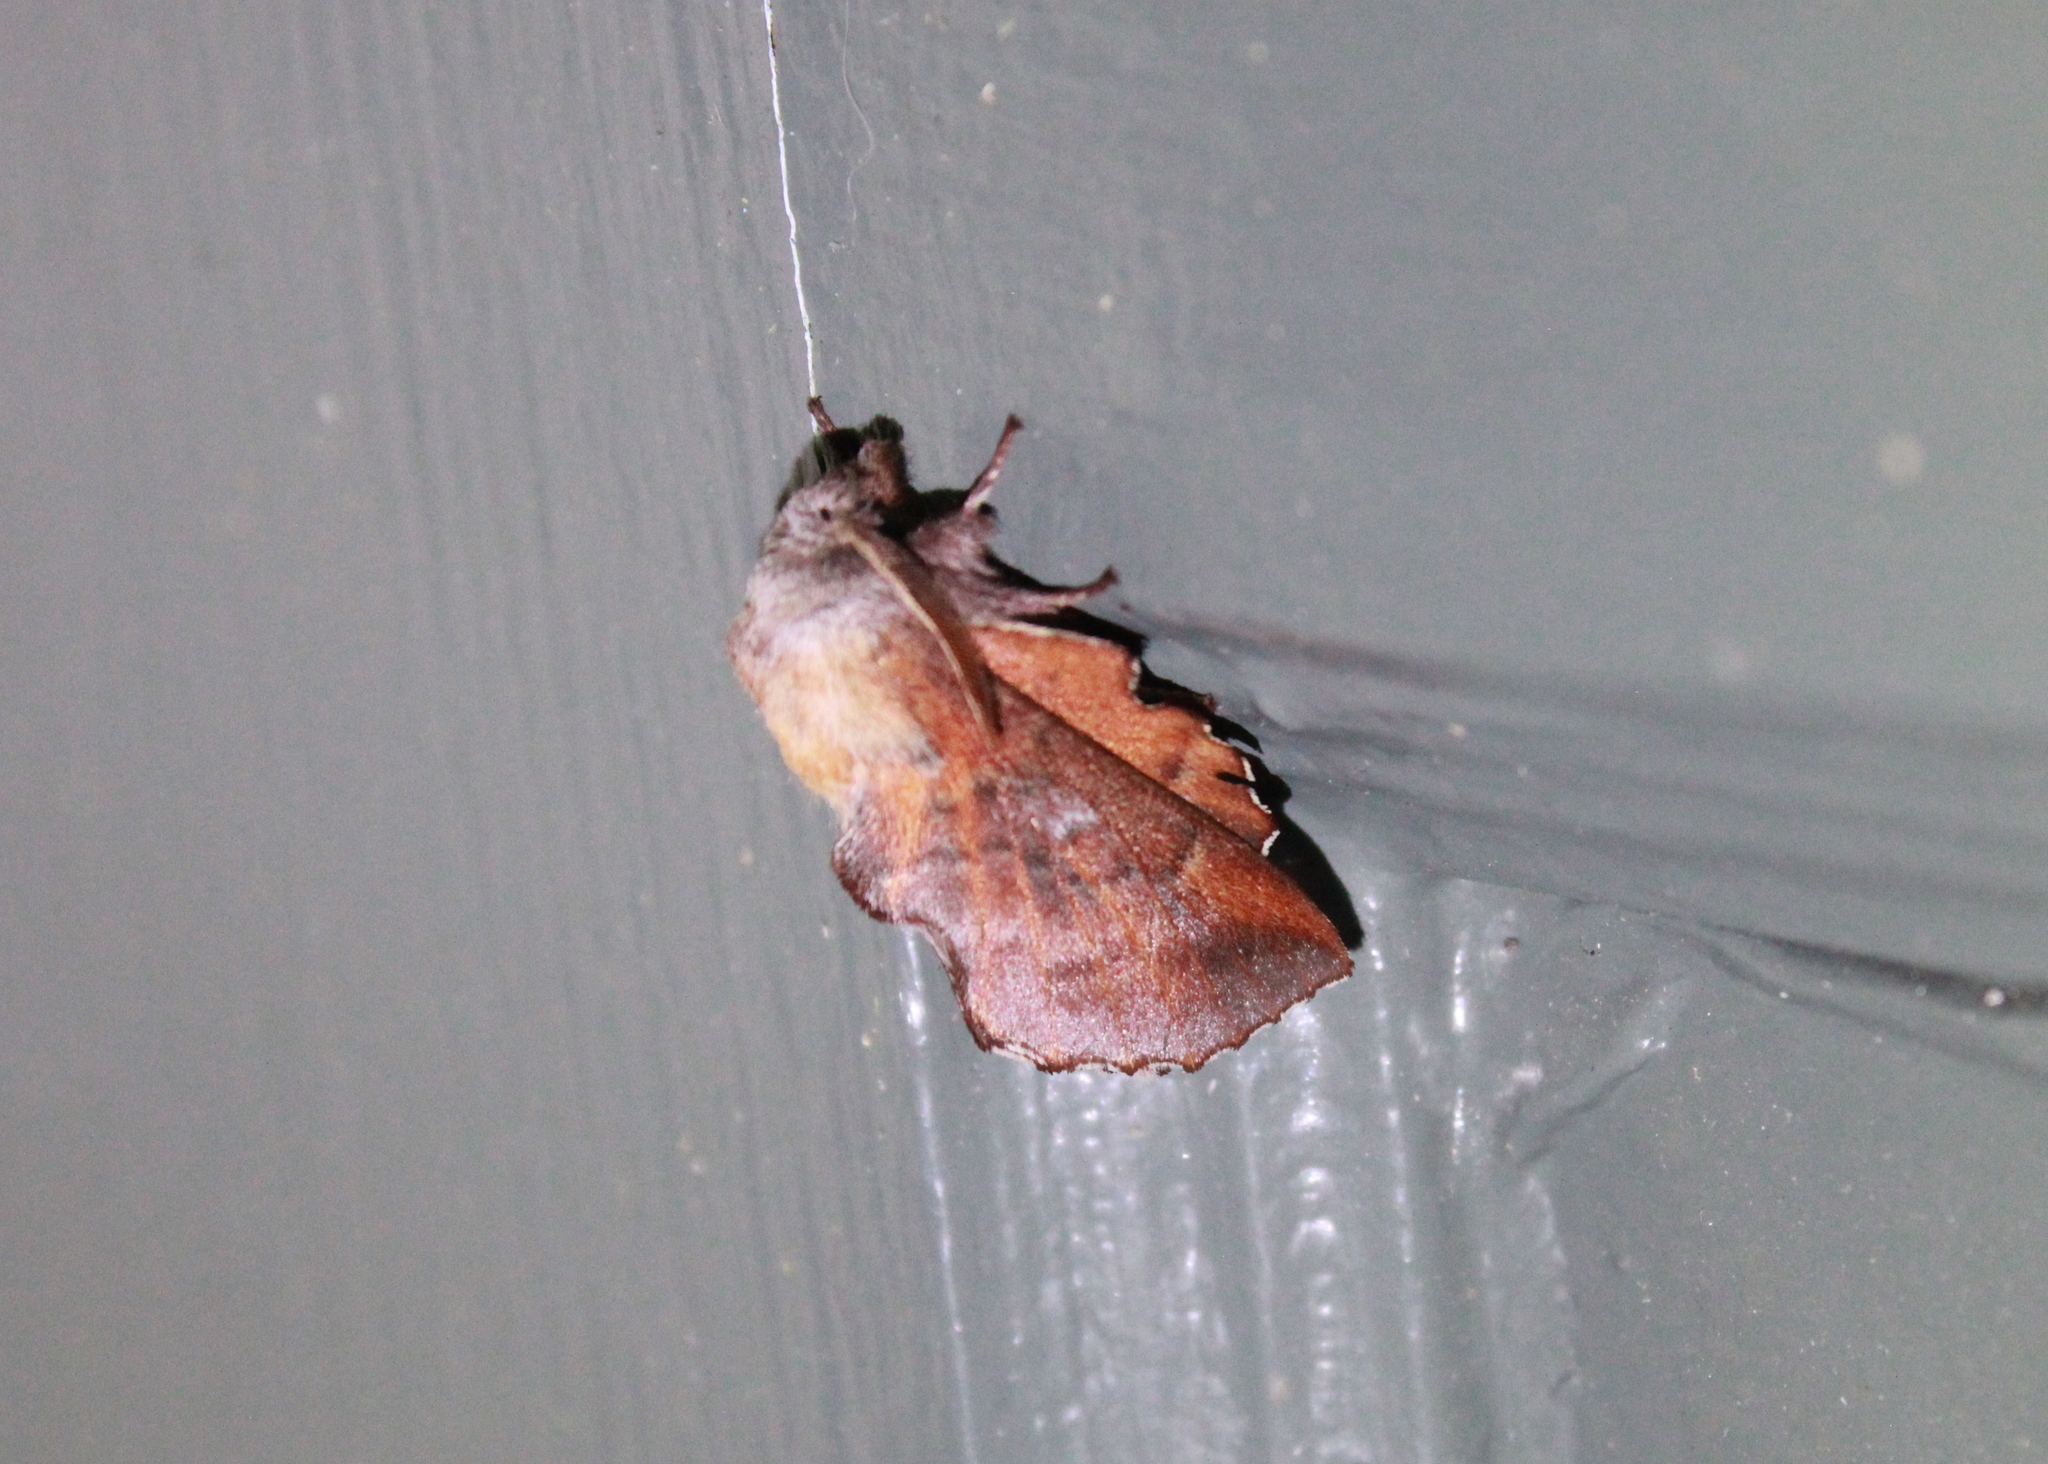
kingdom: Animalia
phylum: Arthropoda
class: Insecta
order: Lepidoptera
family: Lasiocampidae
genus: Phyllodesma
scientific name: Phyllodesma americana
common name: American lappet moth
